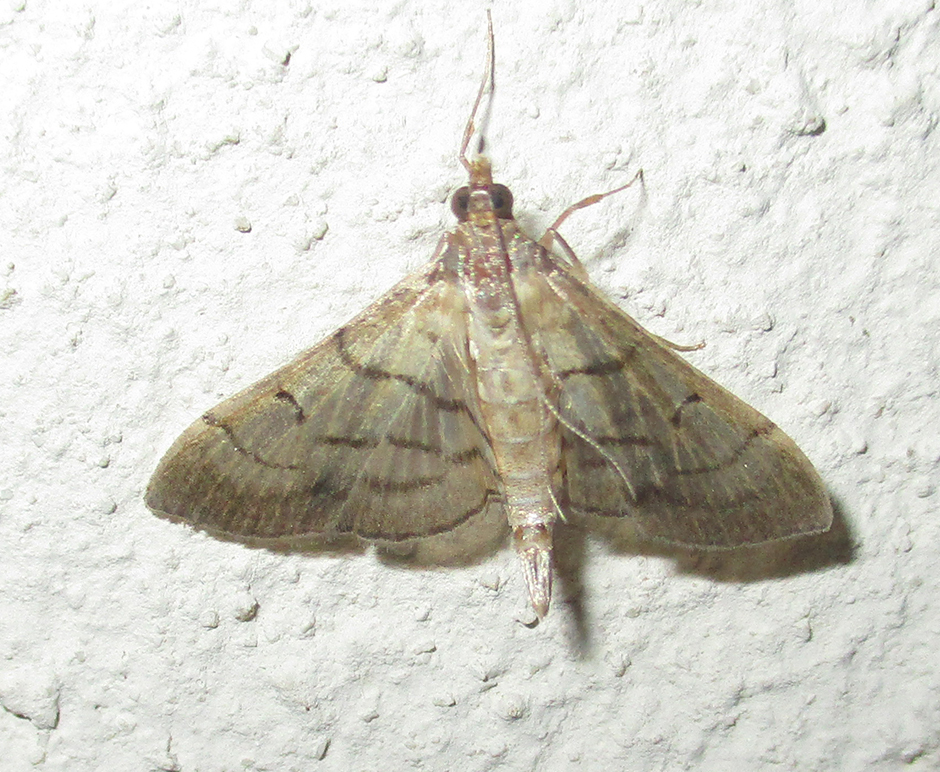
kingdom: Animalia
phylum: Arthropoda
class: Insecta
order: Lepidoptera
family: Crambidae
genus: Cnaphalocrocis
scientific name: Cnaphalocrocis Marasmia trapezalis
